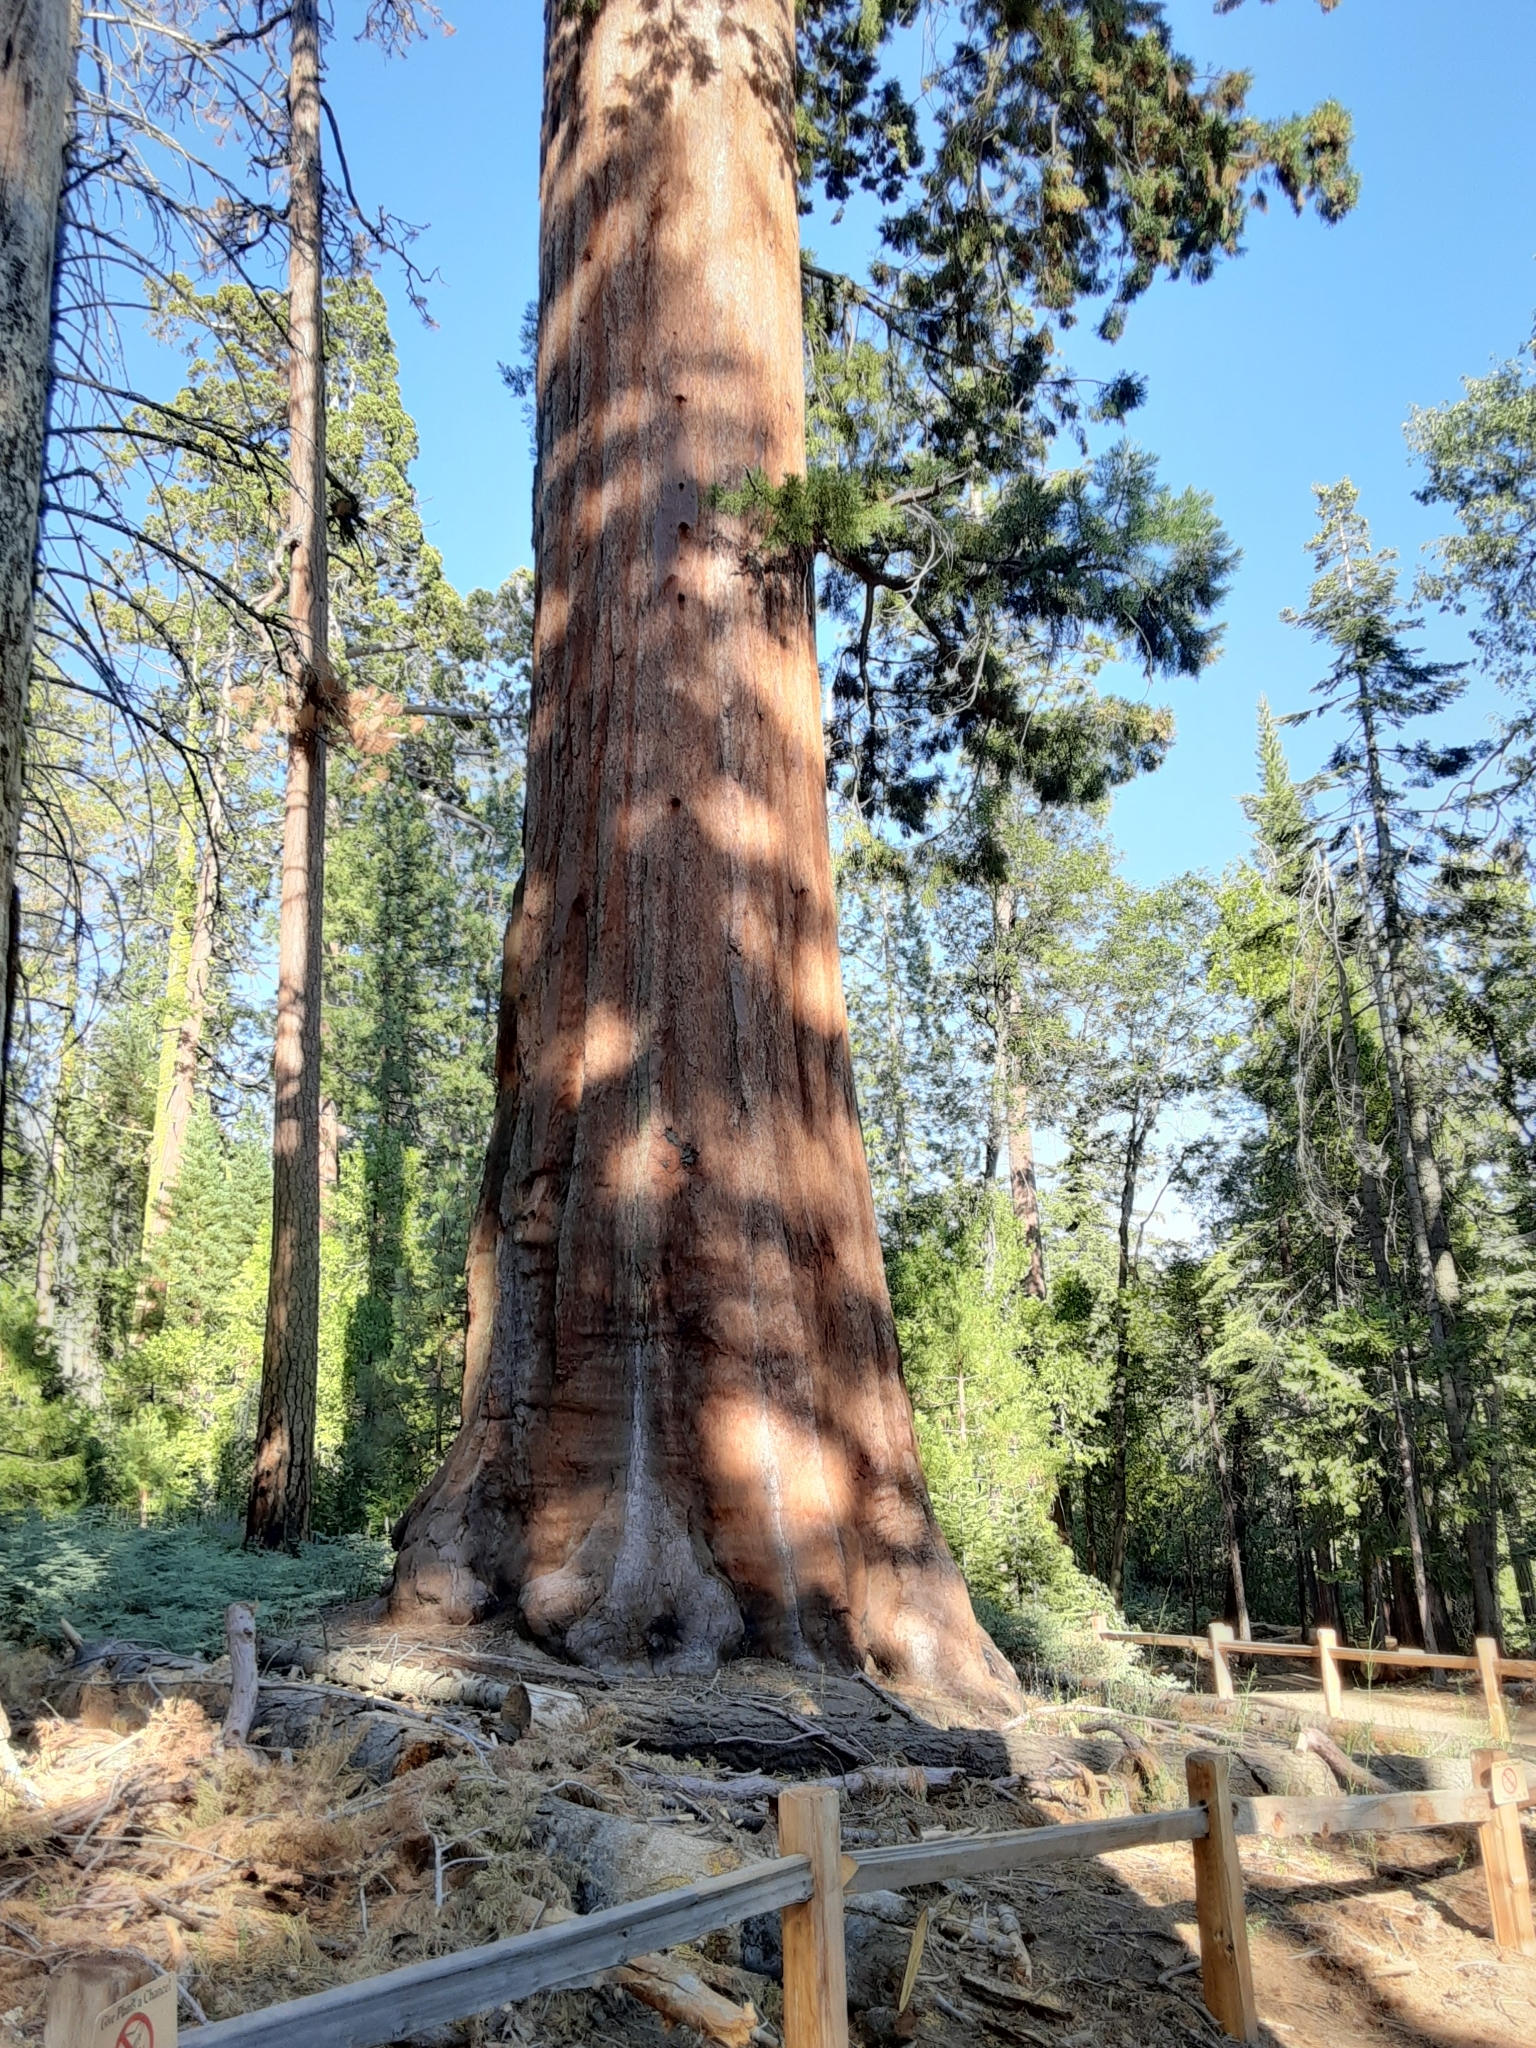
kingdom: Plantae
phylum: Tracheophyta
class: Pinopsida
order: Pinales
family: Cupressaceae
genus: Sequoiadendron
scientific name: Sequoiadendron giganteum
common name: Wellingtonia
